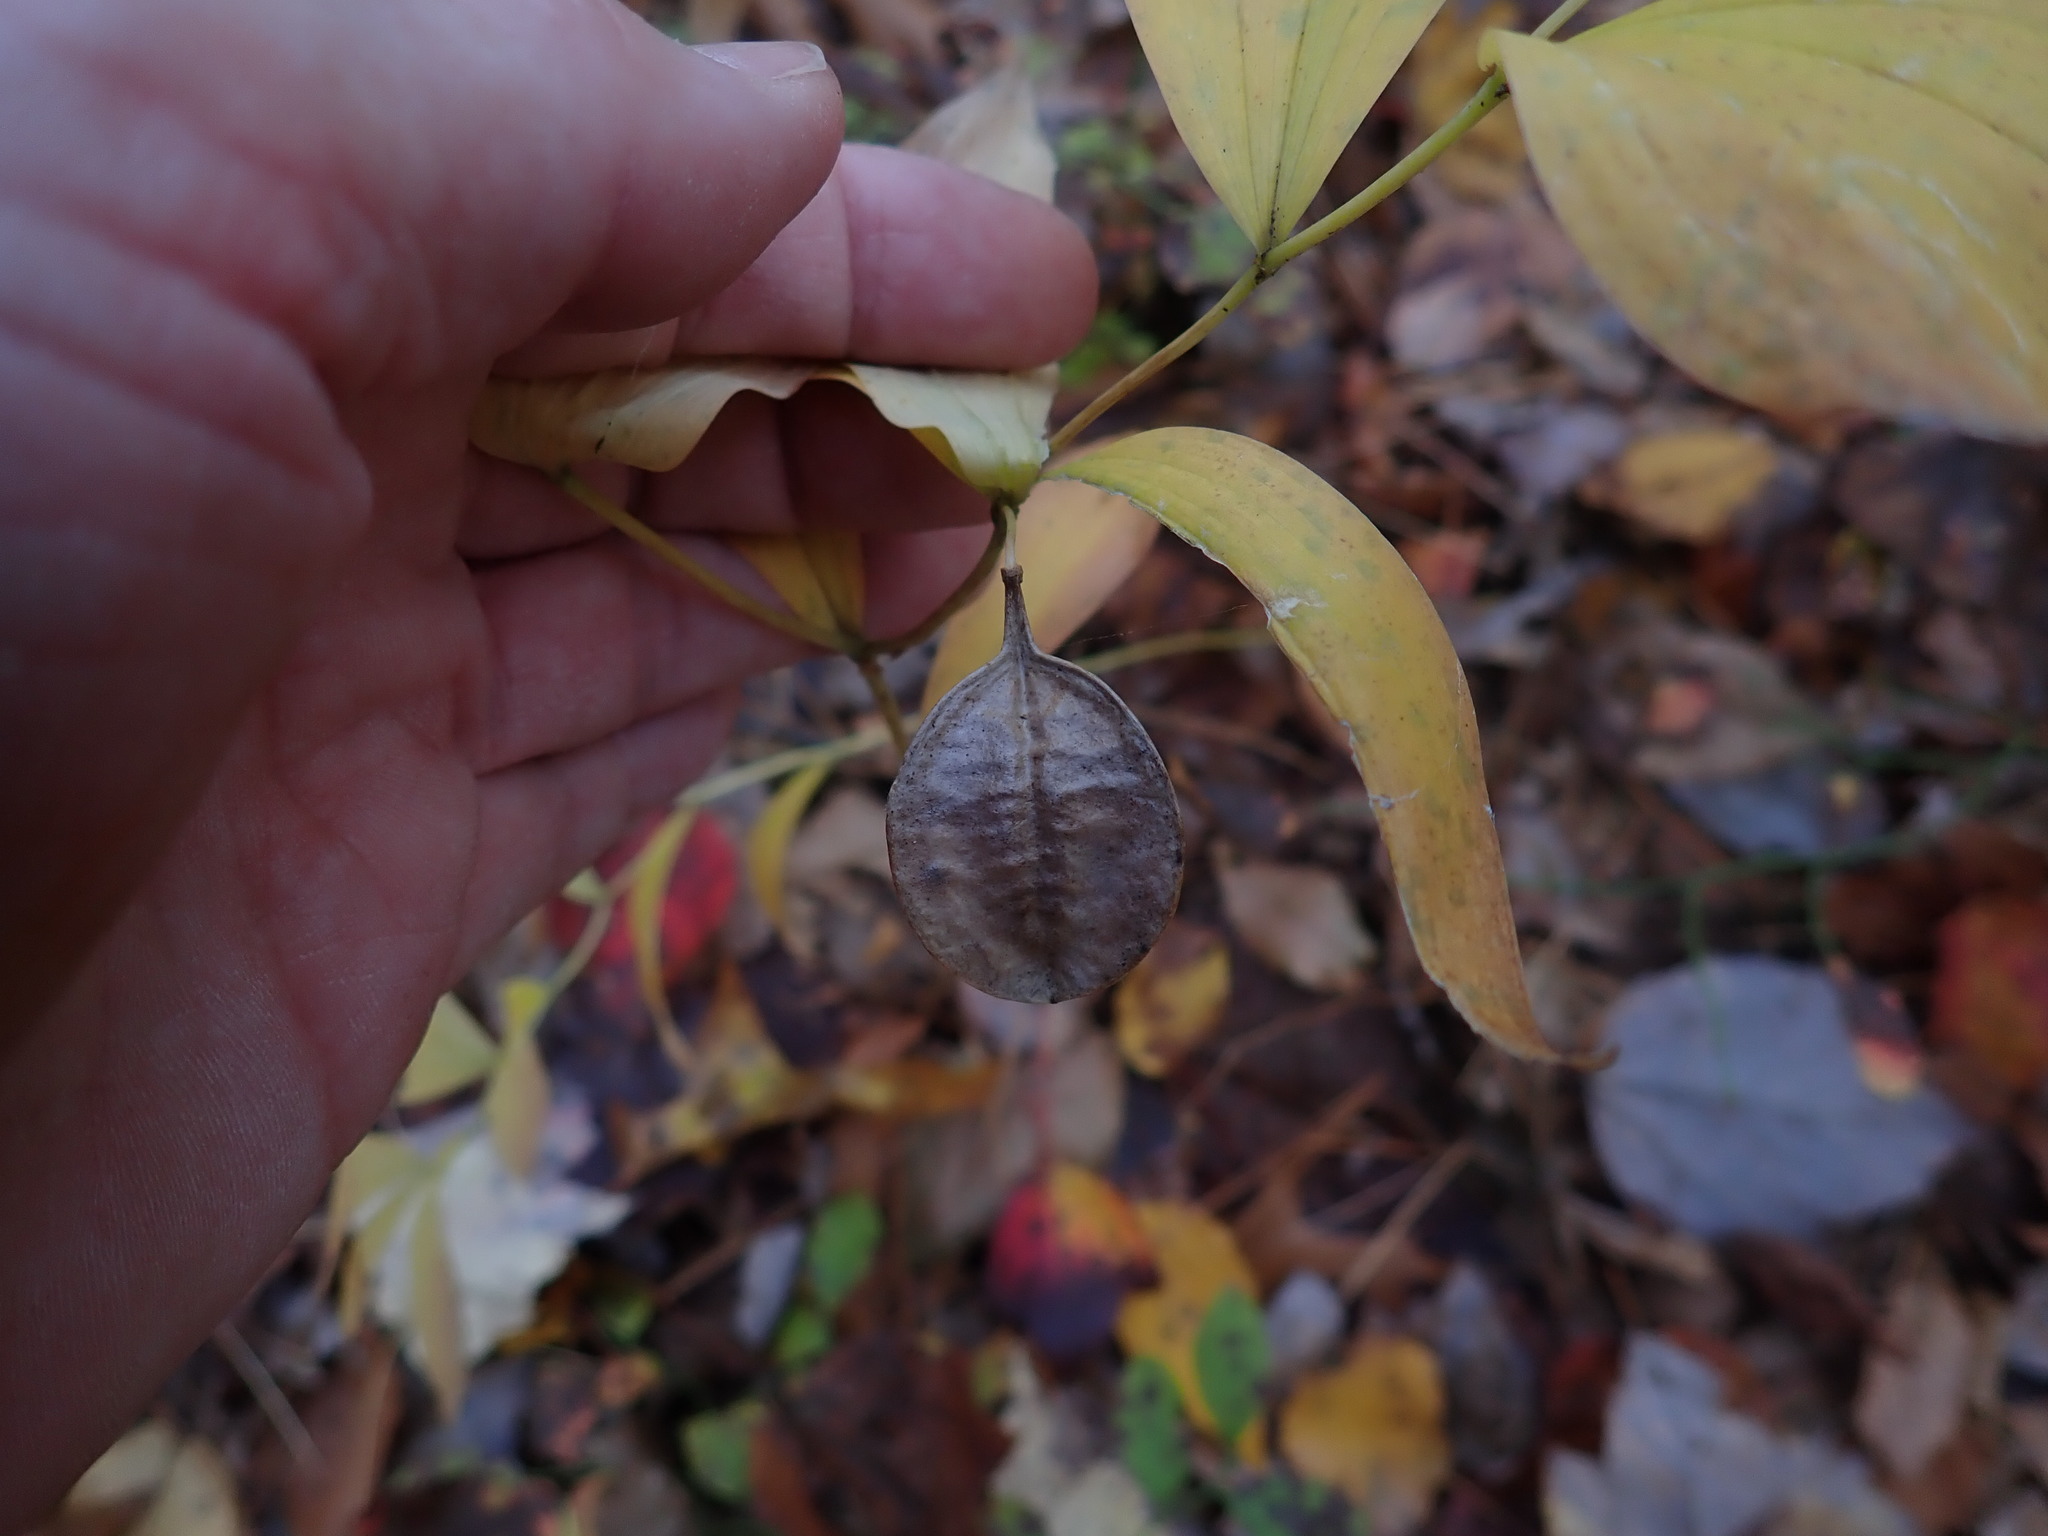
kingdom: Plantae
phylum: Tracheophyta
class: Liliopsida
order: Liliales
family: Colchicaceae
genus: Uvularia
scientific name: Uvularia sessilifolia
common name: Straw-lily
